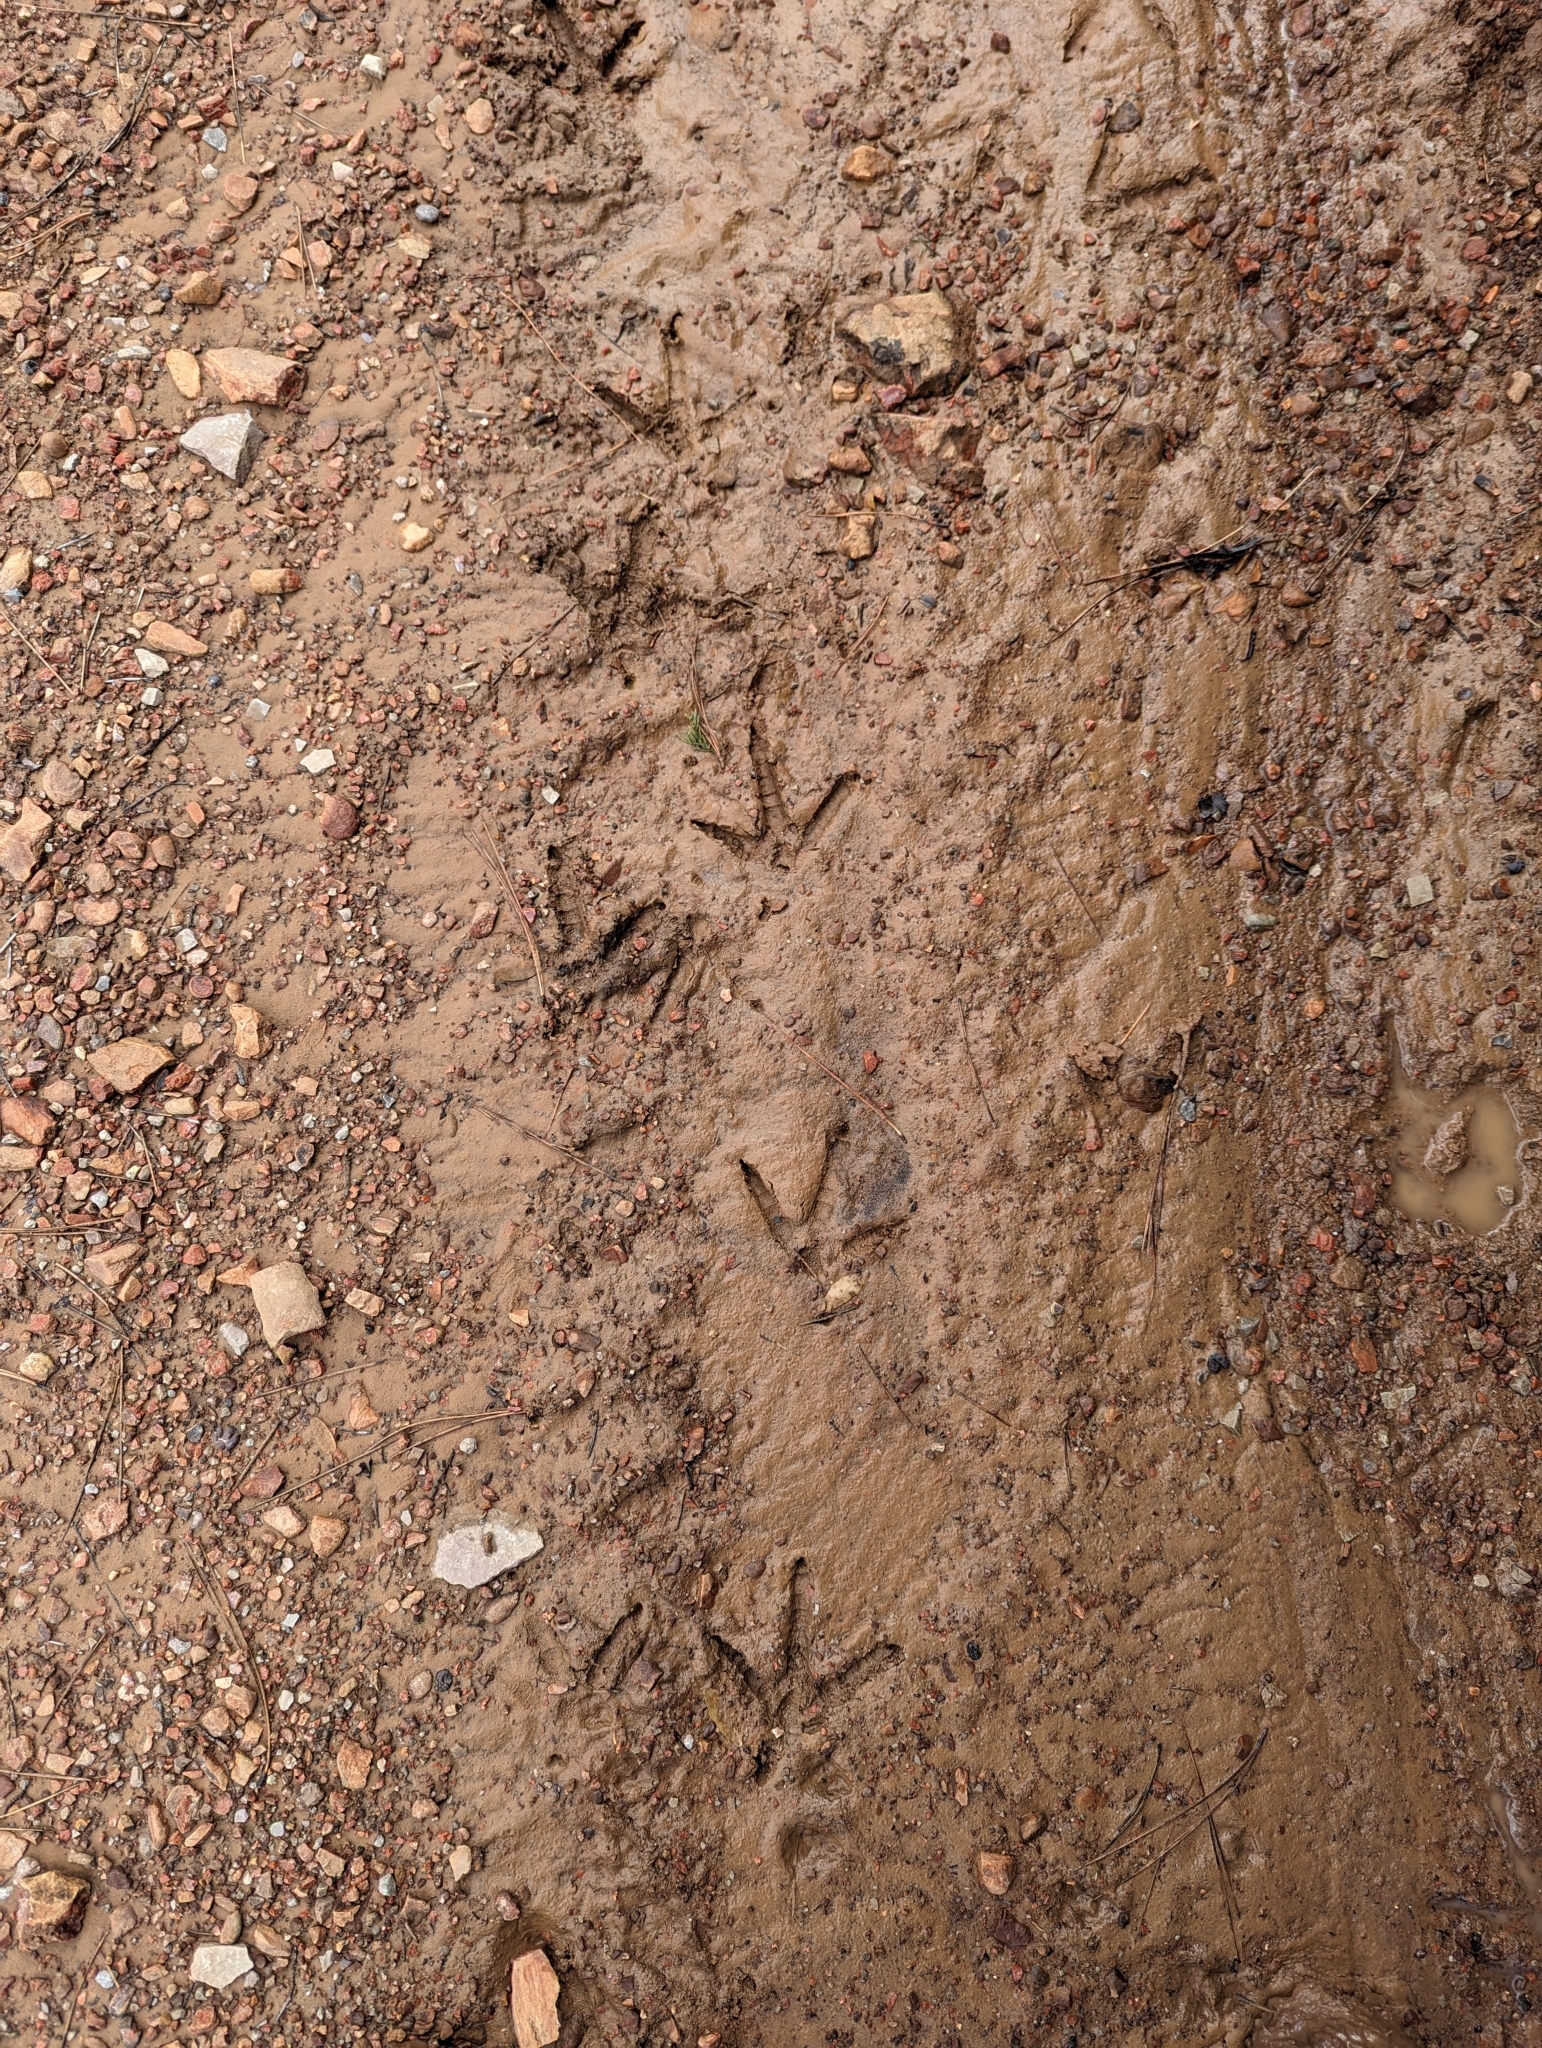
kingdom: Animalia
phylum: Chordata
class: Aves
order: Galliformes
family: Phasianidae
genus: Meleagris
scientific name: Meleagris gallopavo
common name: Wild turkey
